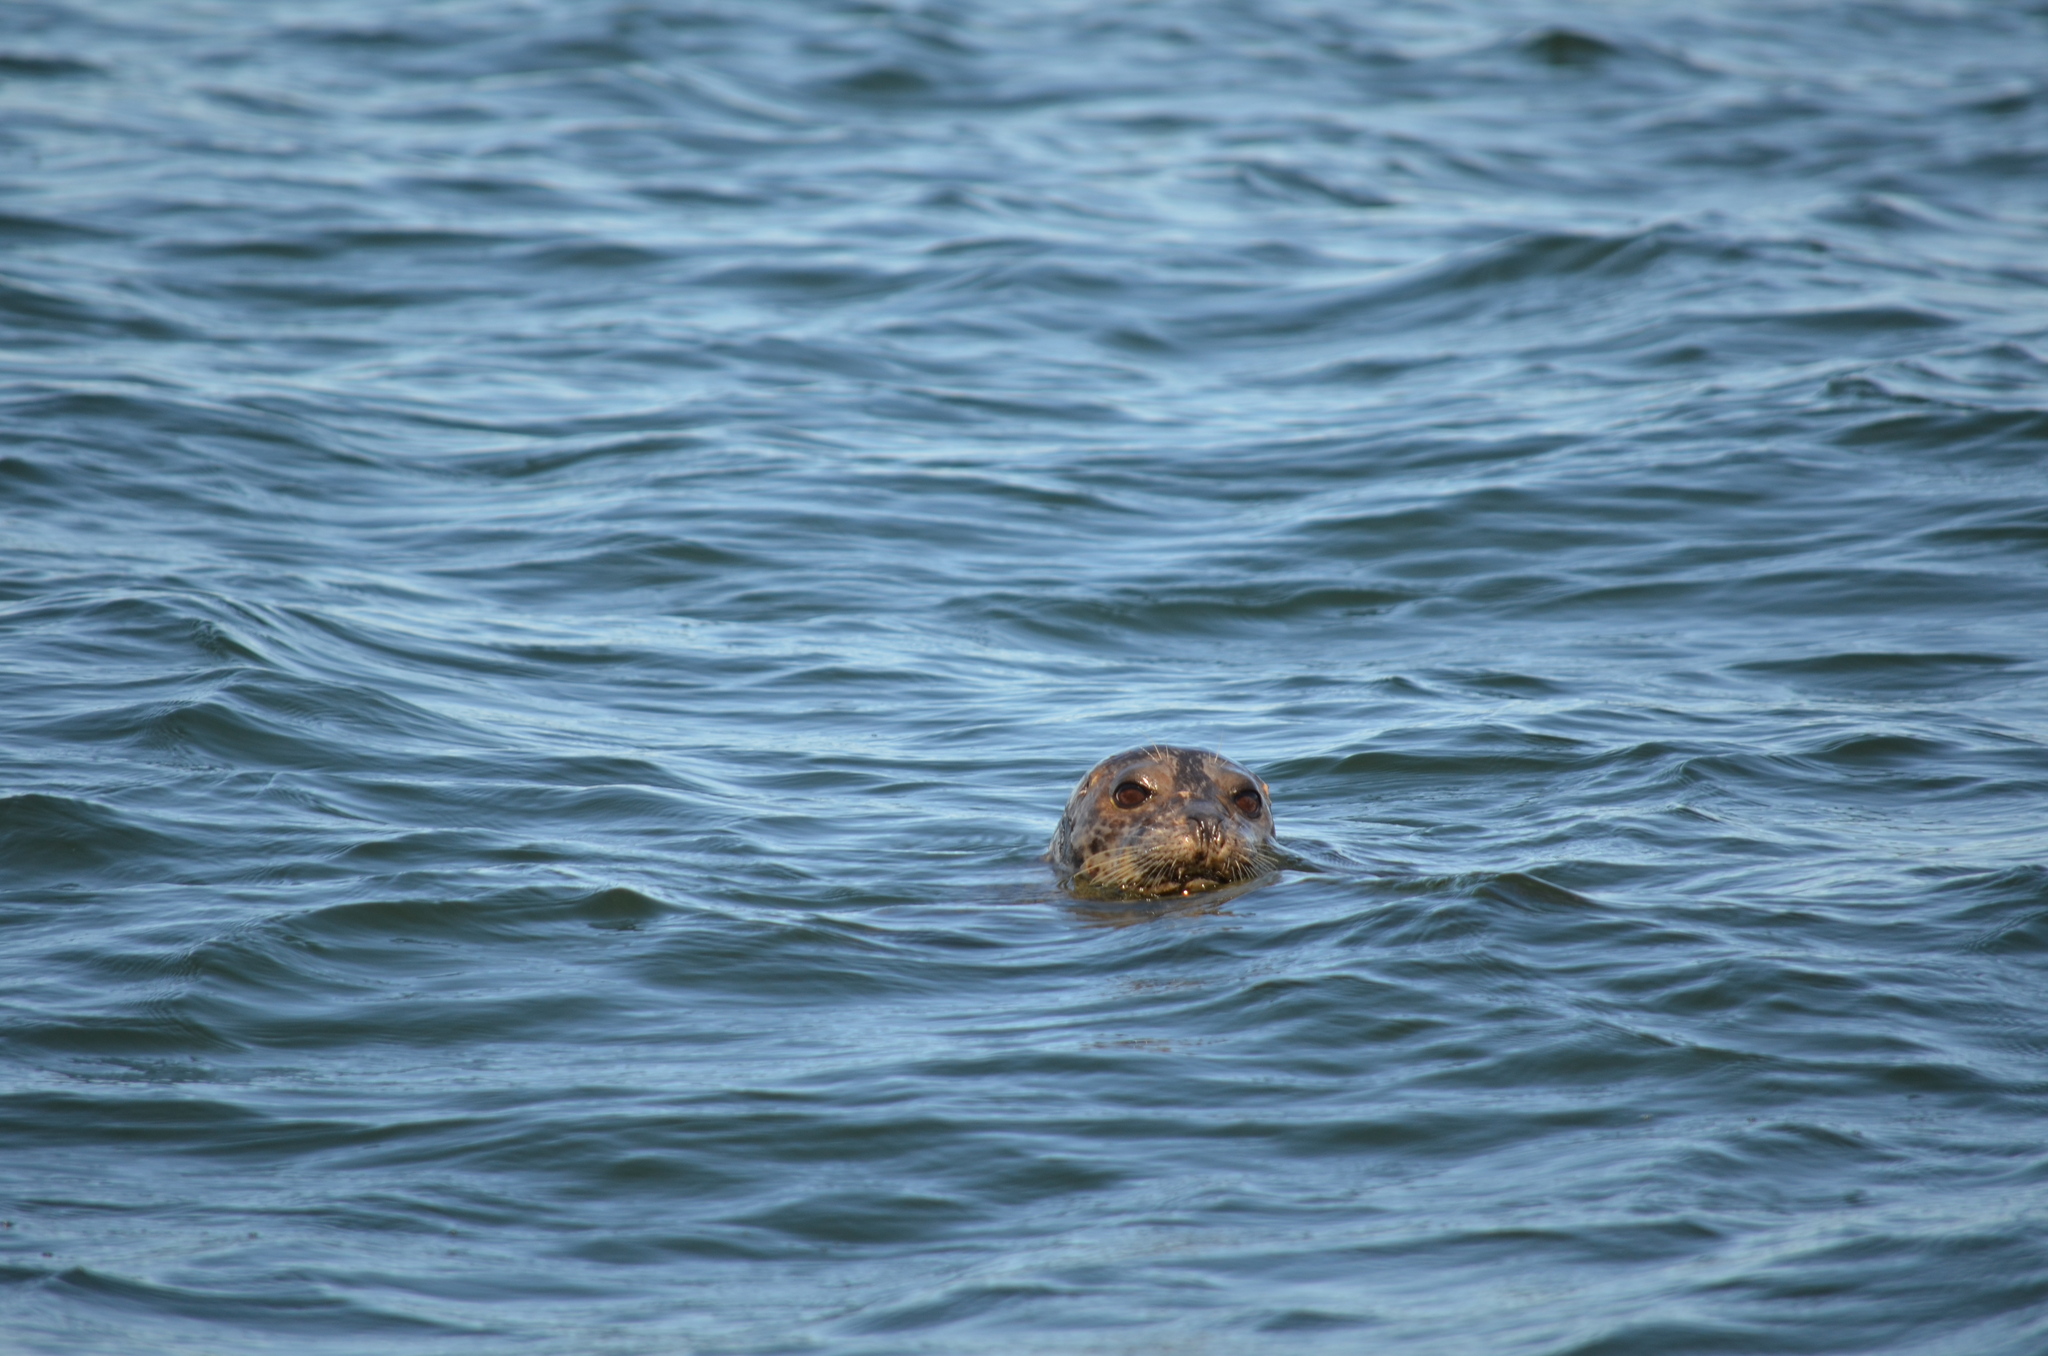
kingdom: Animalia
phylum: Chordata
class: Mammalia
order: Carnivora
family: Phocidae
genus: Phoca
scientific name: Phoca vitulina
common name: Harbor seal
